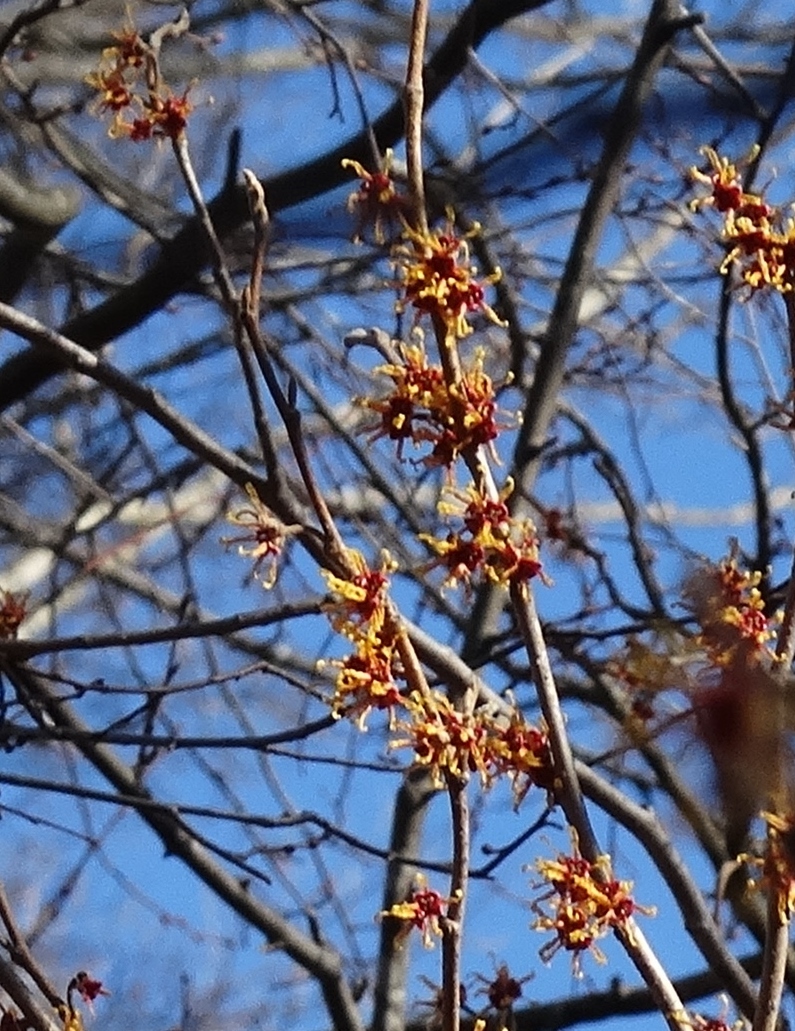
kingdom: Plantae
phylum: Tracheophyta
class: Magnoliopsida
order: Saxifragales
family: Hamamelidaceae
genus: Hamamelis
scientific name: Hamamelis vernalis
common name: Ozark witch-hazel
